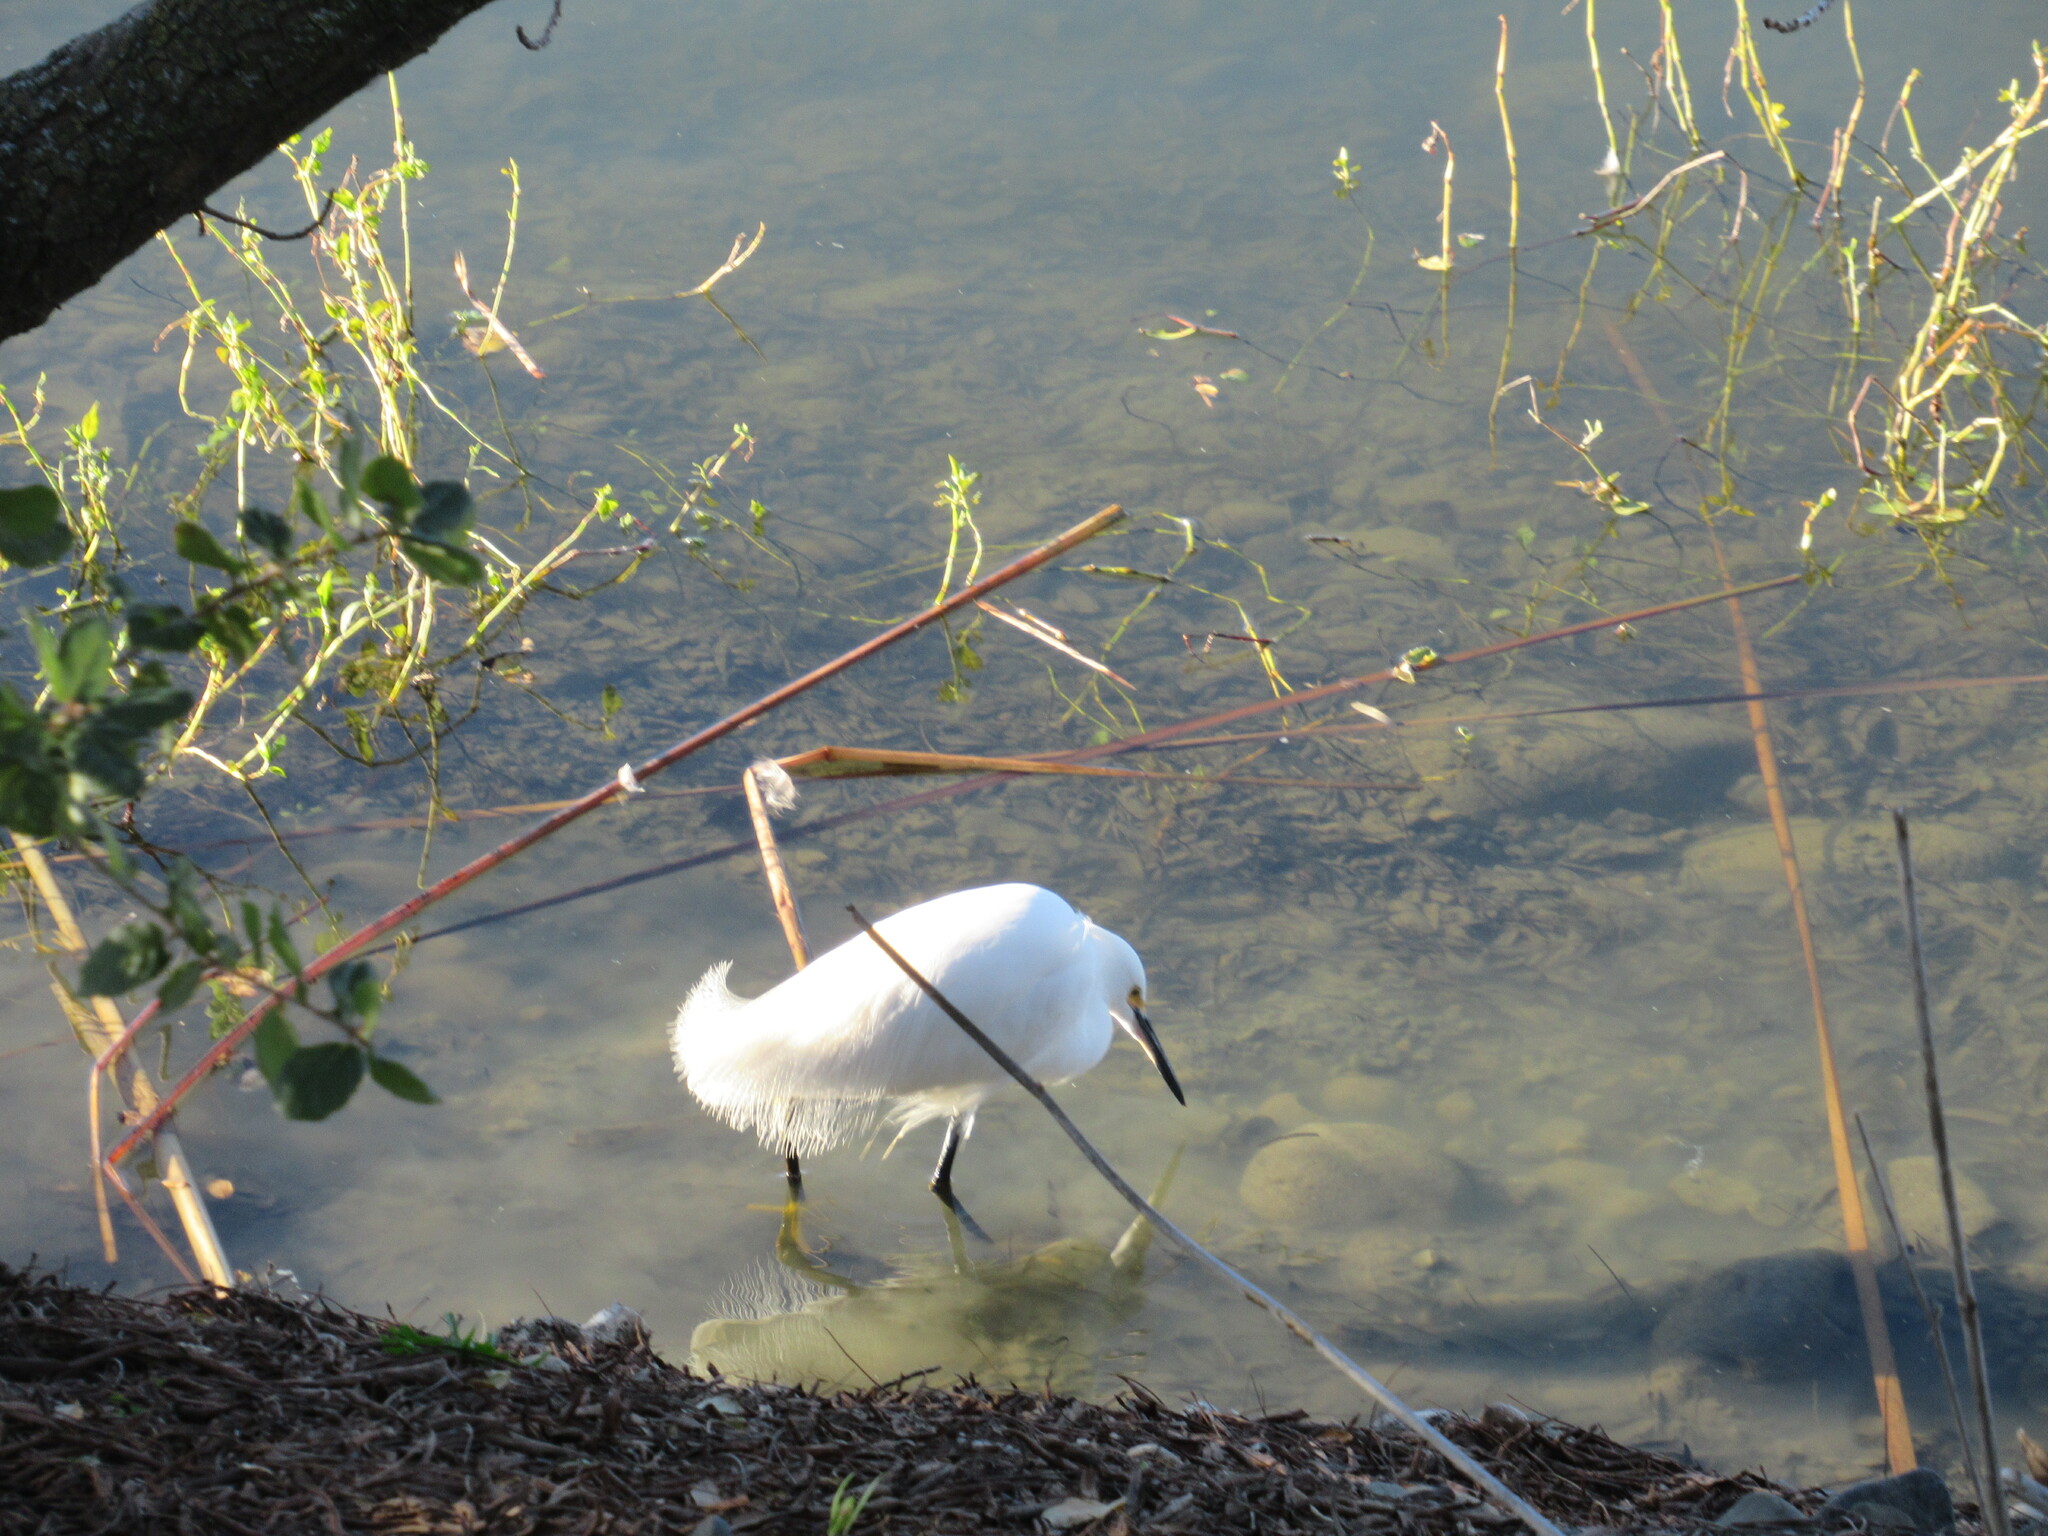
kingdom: Animalia
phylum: Chordata
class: Aves
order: Pelecaniformes
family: Ardeidae
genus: Egretta
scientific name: Egretta thula
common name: Snowy egret
